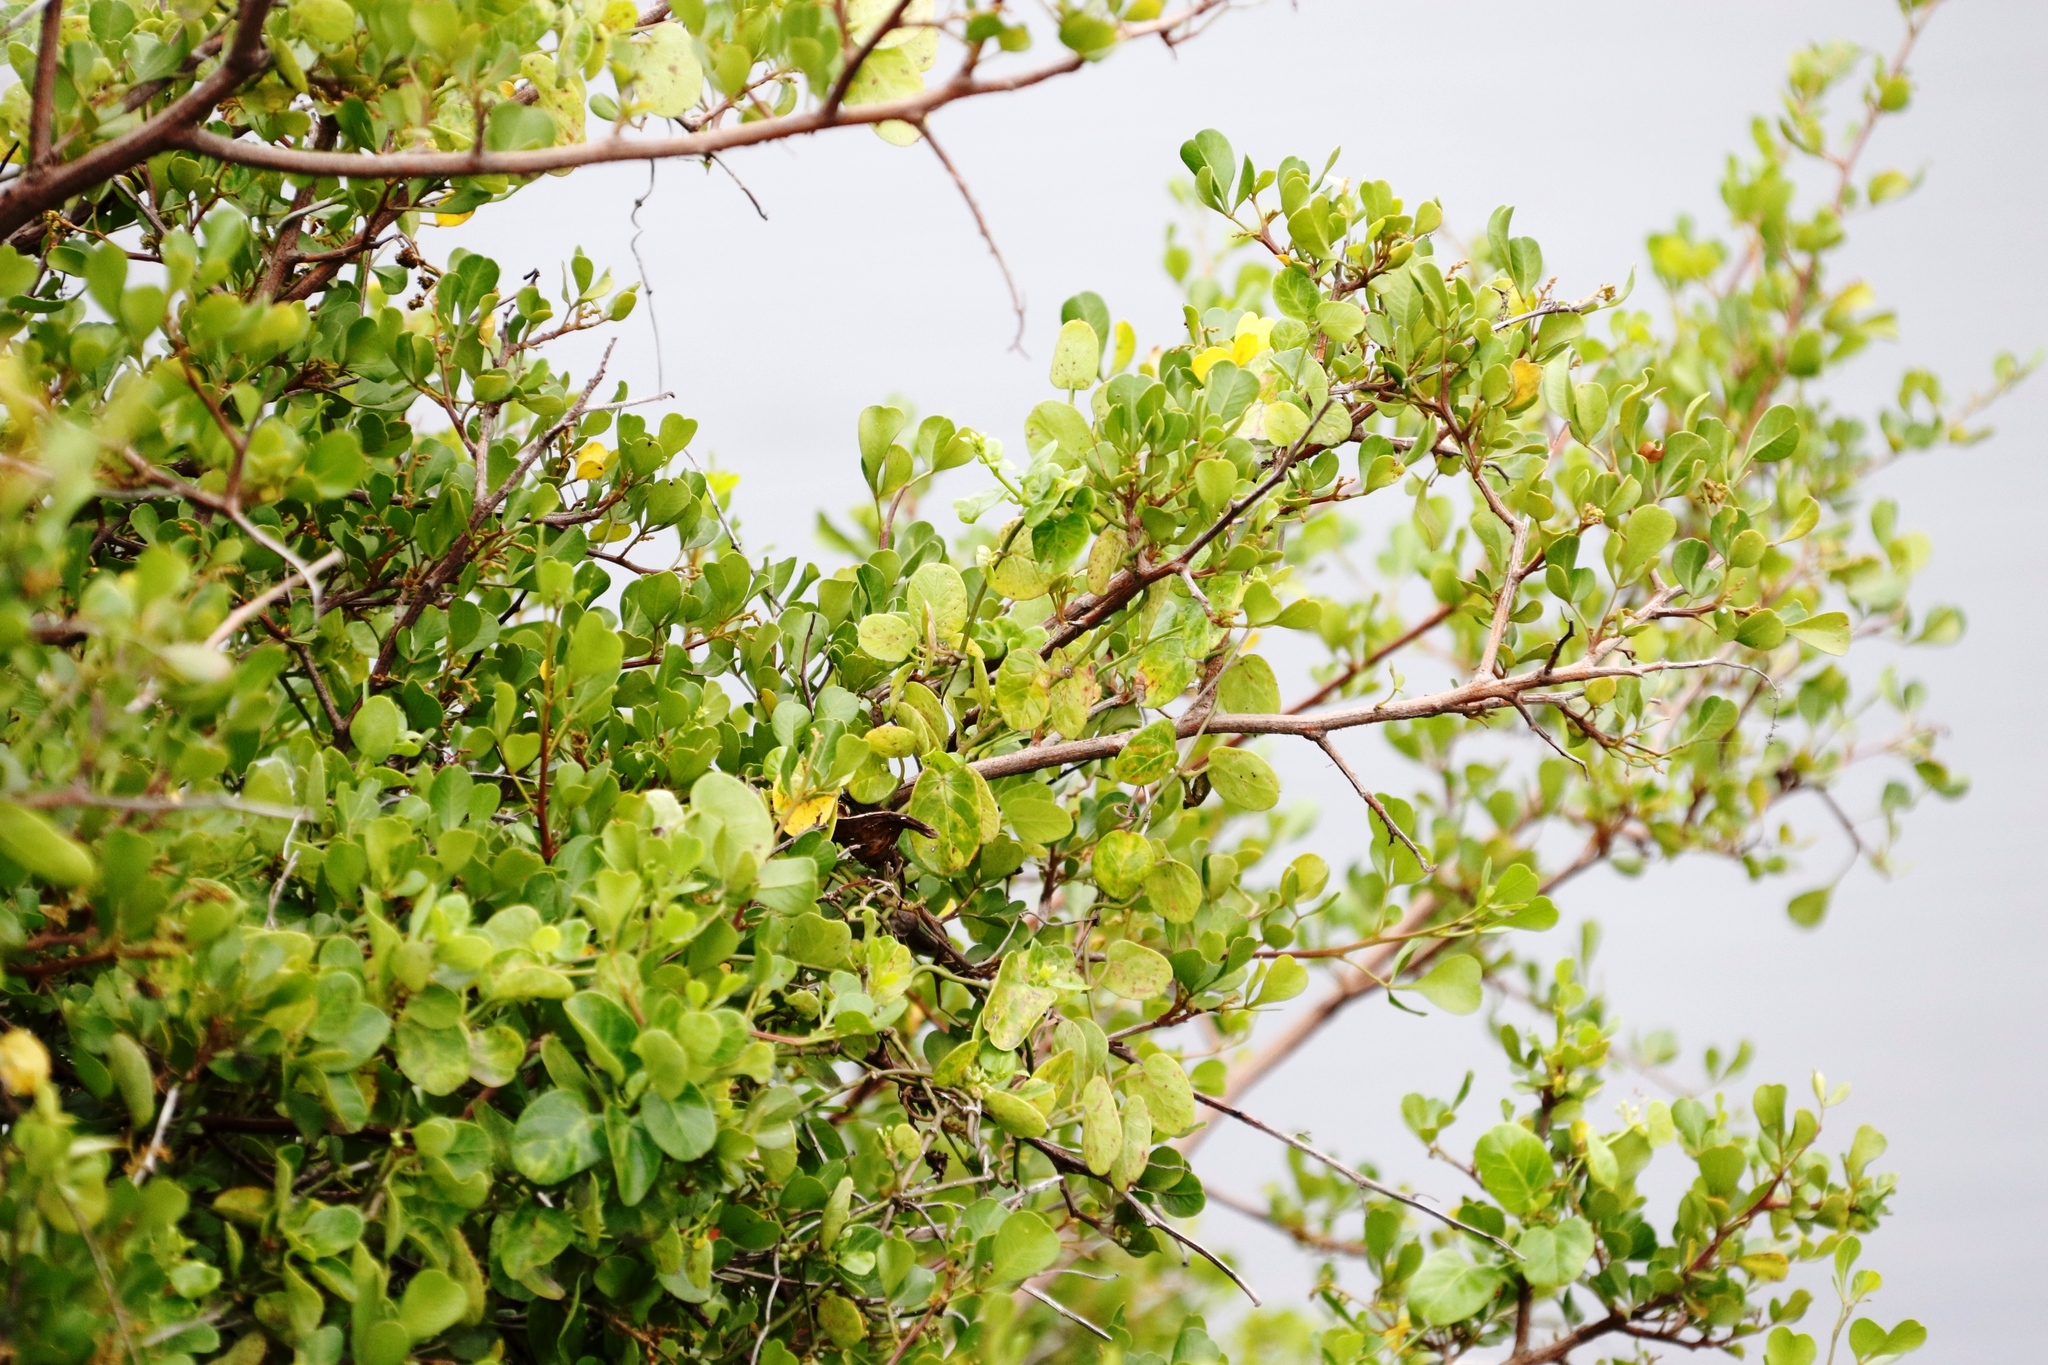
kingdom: Plantae
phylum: Tracheophyta
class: Magnoliopsida
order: Sapindales
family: Anacardiaceae
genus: Searsia
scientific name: Searsia glauca
